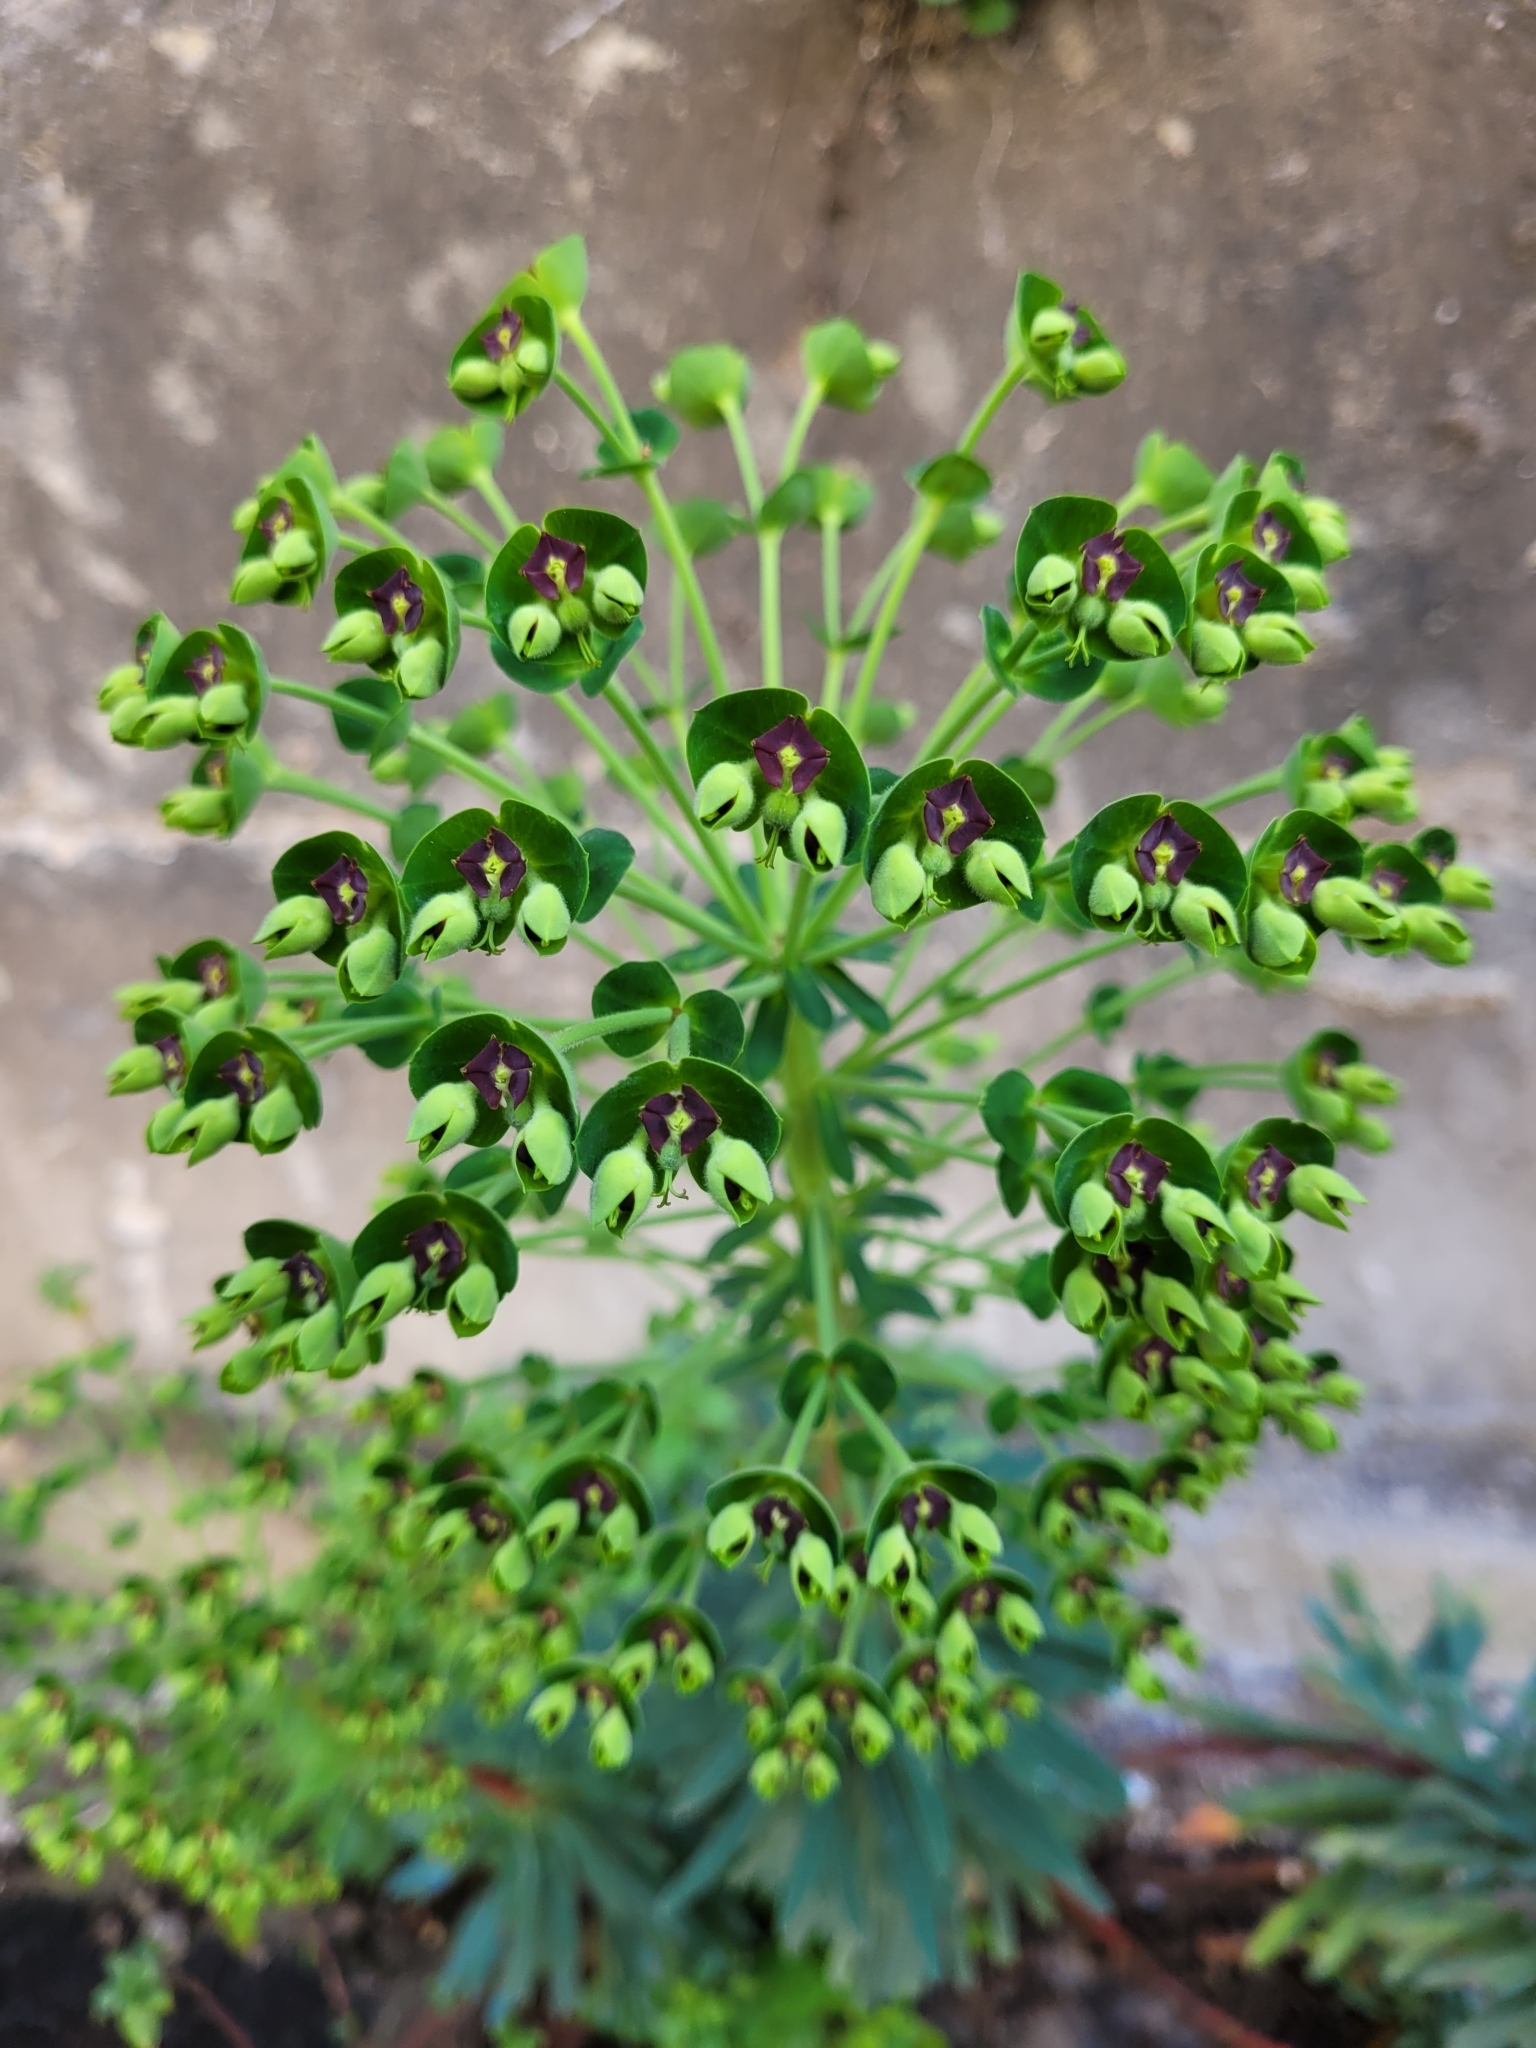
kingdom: Plantae
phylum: Tracheophyta
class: Magnoliopsida
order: Malpighiales
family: Euphorbiaceae
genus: Euphorbia
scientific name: Euphorbia characias
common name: Mediterranean spurge
